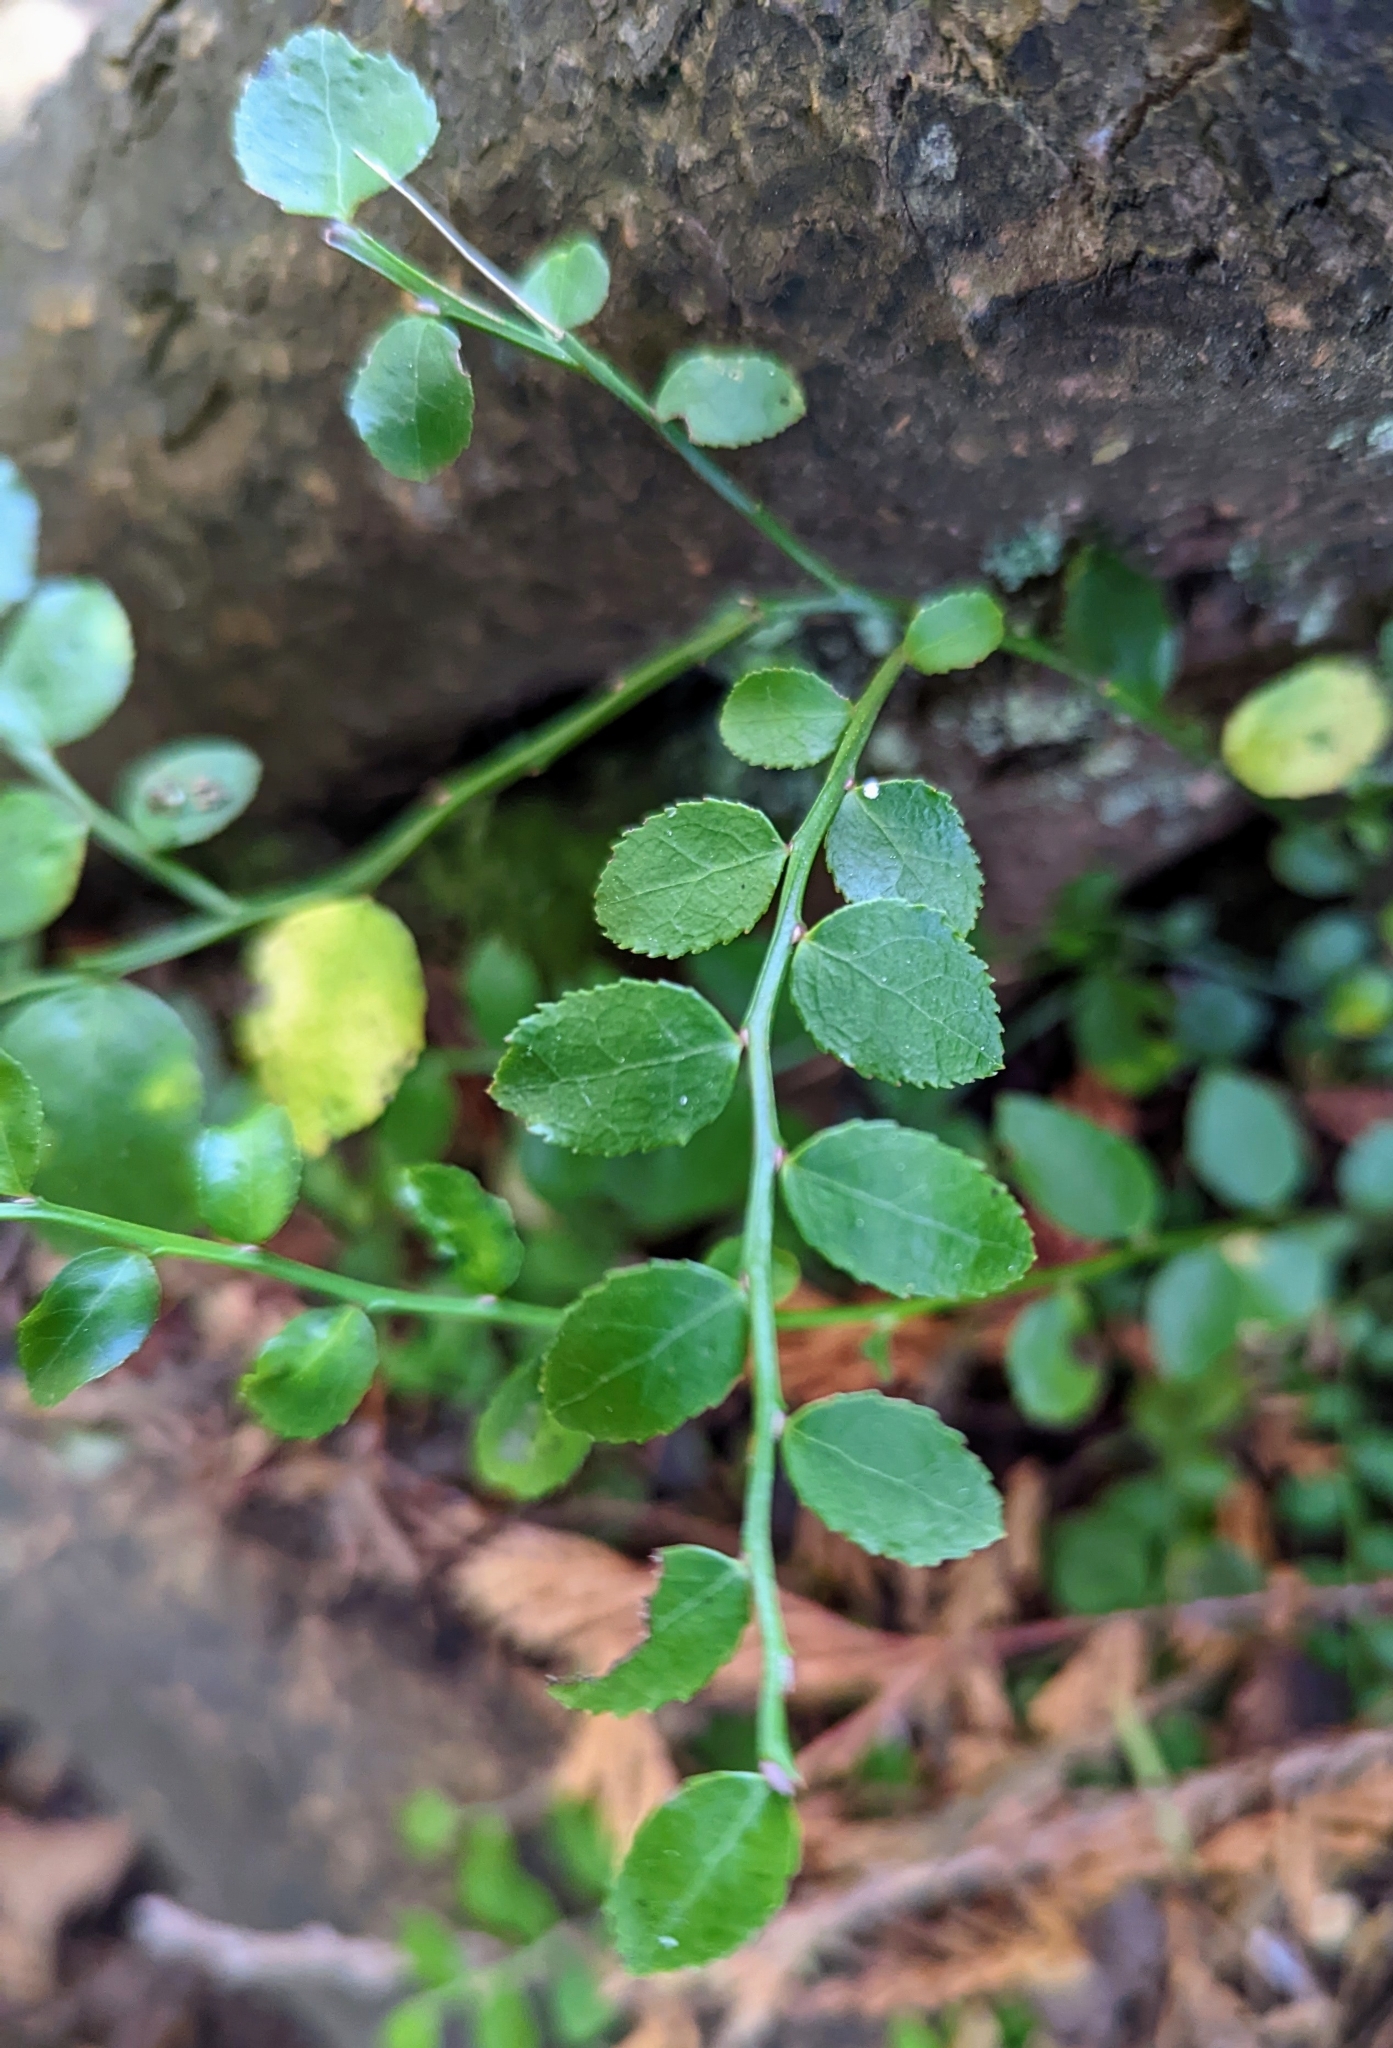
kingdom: Plantae
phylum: Tracheophyta
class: Magnoliopsida
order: Ericales
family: Ericaceae
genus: Vaccinium
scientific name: Vaccinium parvifolium
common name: Red-huckleberry
